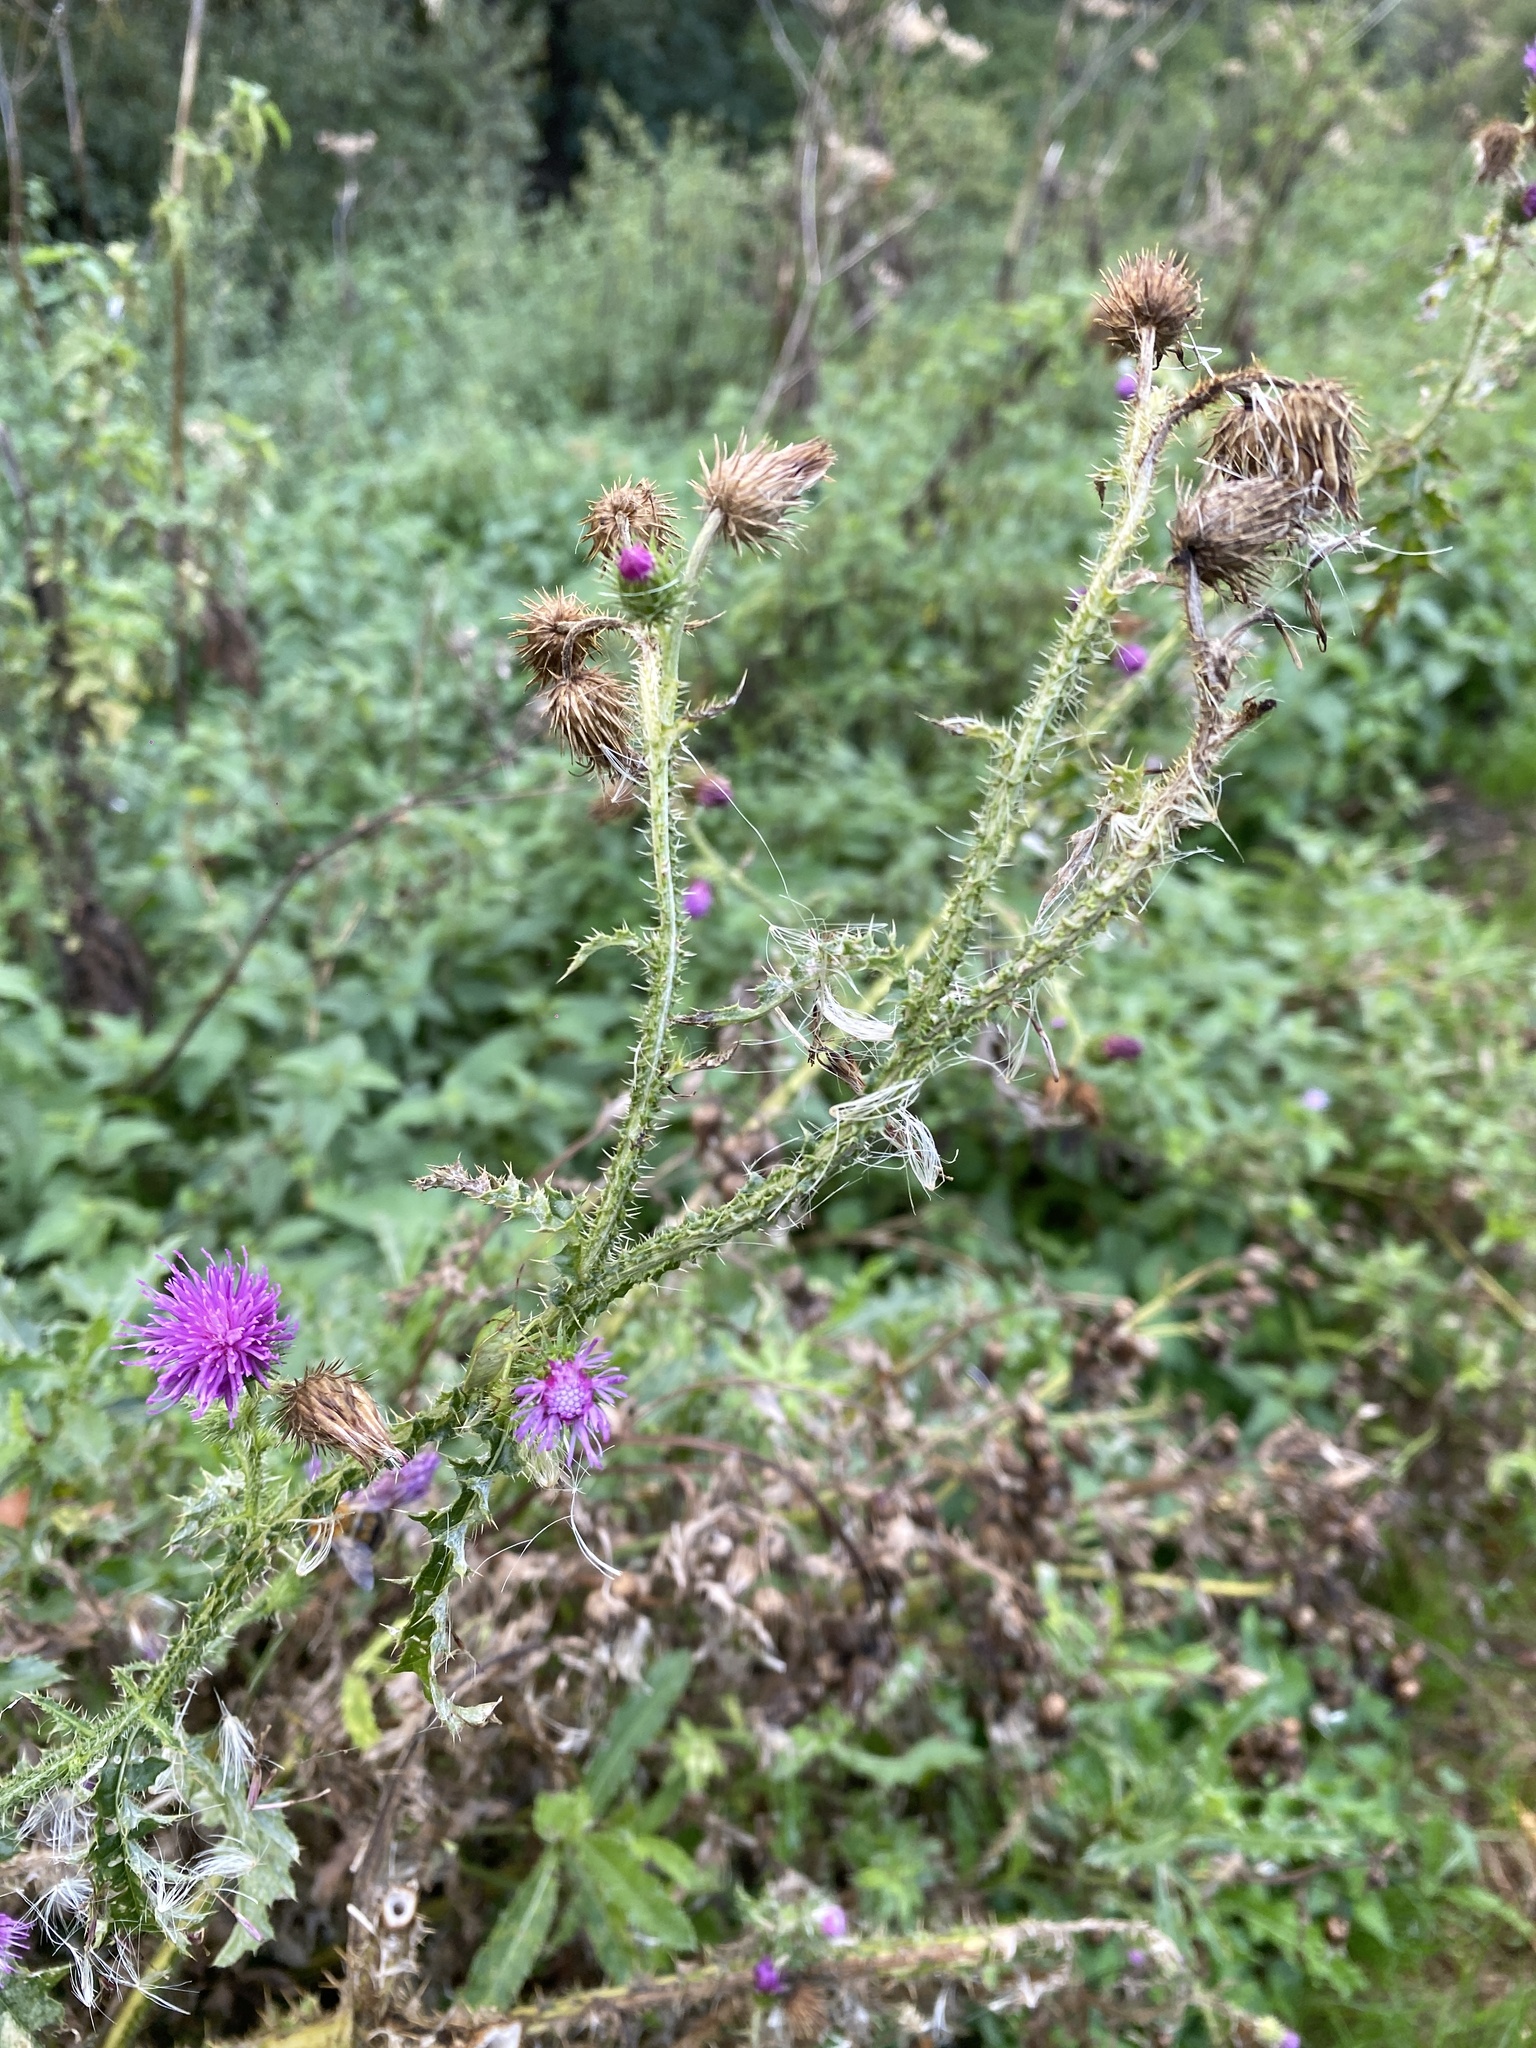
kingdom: Plantae
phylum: Tracheophyta
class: Magnoliopsida
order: Asterales
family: Asteraceae
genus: Carduus
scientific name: Carduus crispus
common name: Welted thistle
